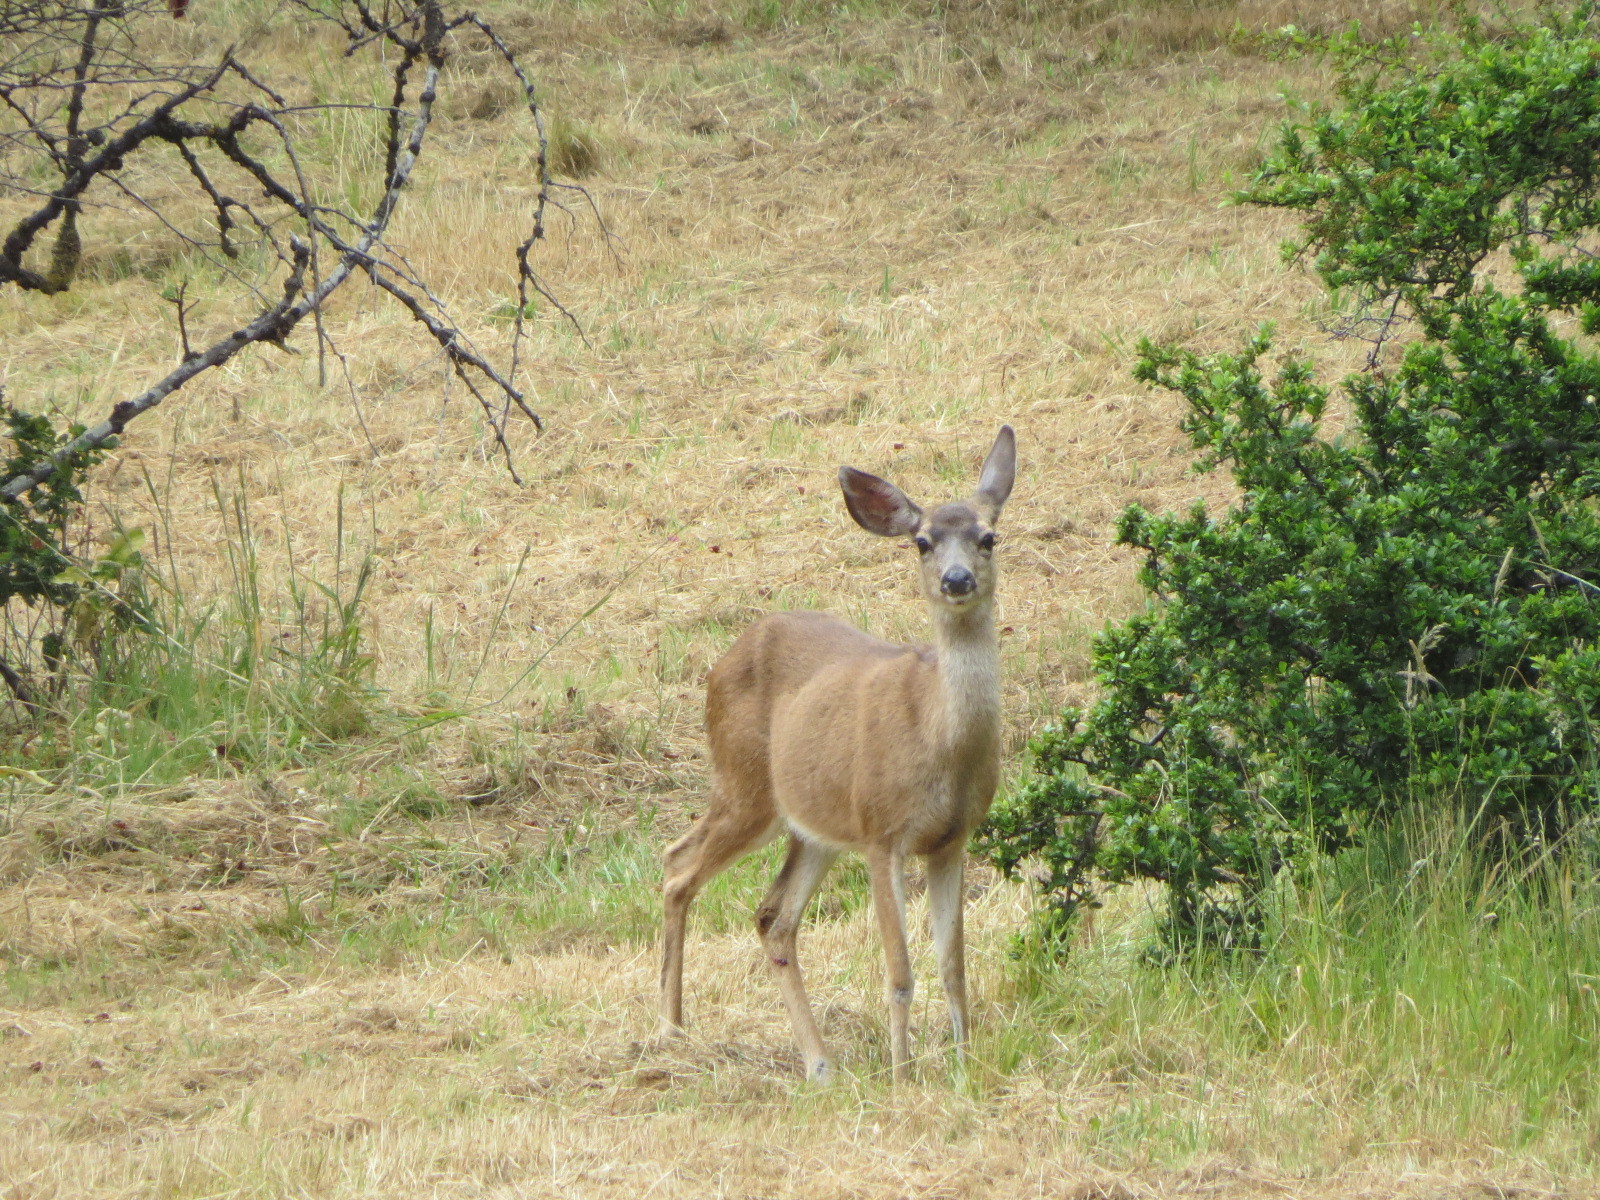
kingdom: Animalia
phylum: Chordata
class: Mammalia
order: Artiodactyla
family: Cervidae
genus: Odocoileus
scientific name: Odocoileus hemionus
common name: Mule deer
